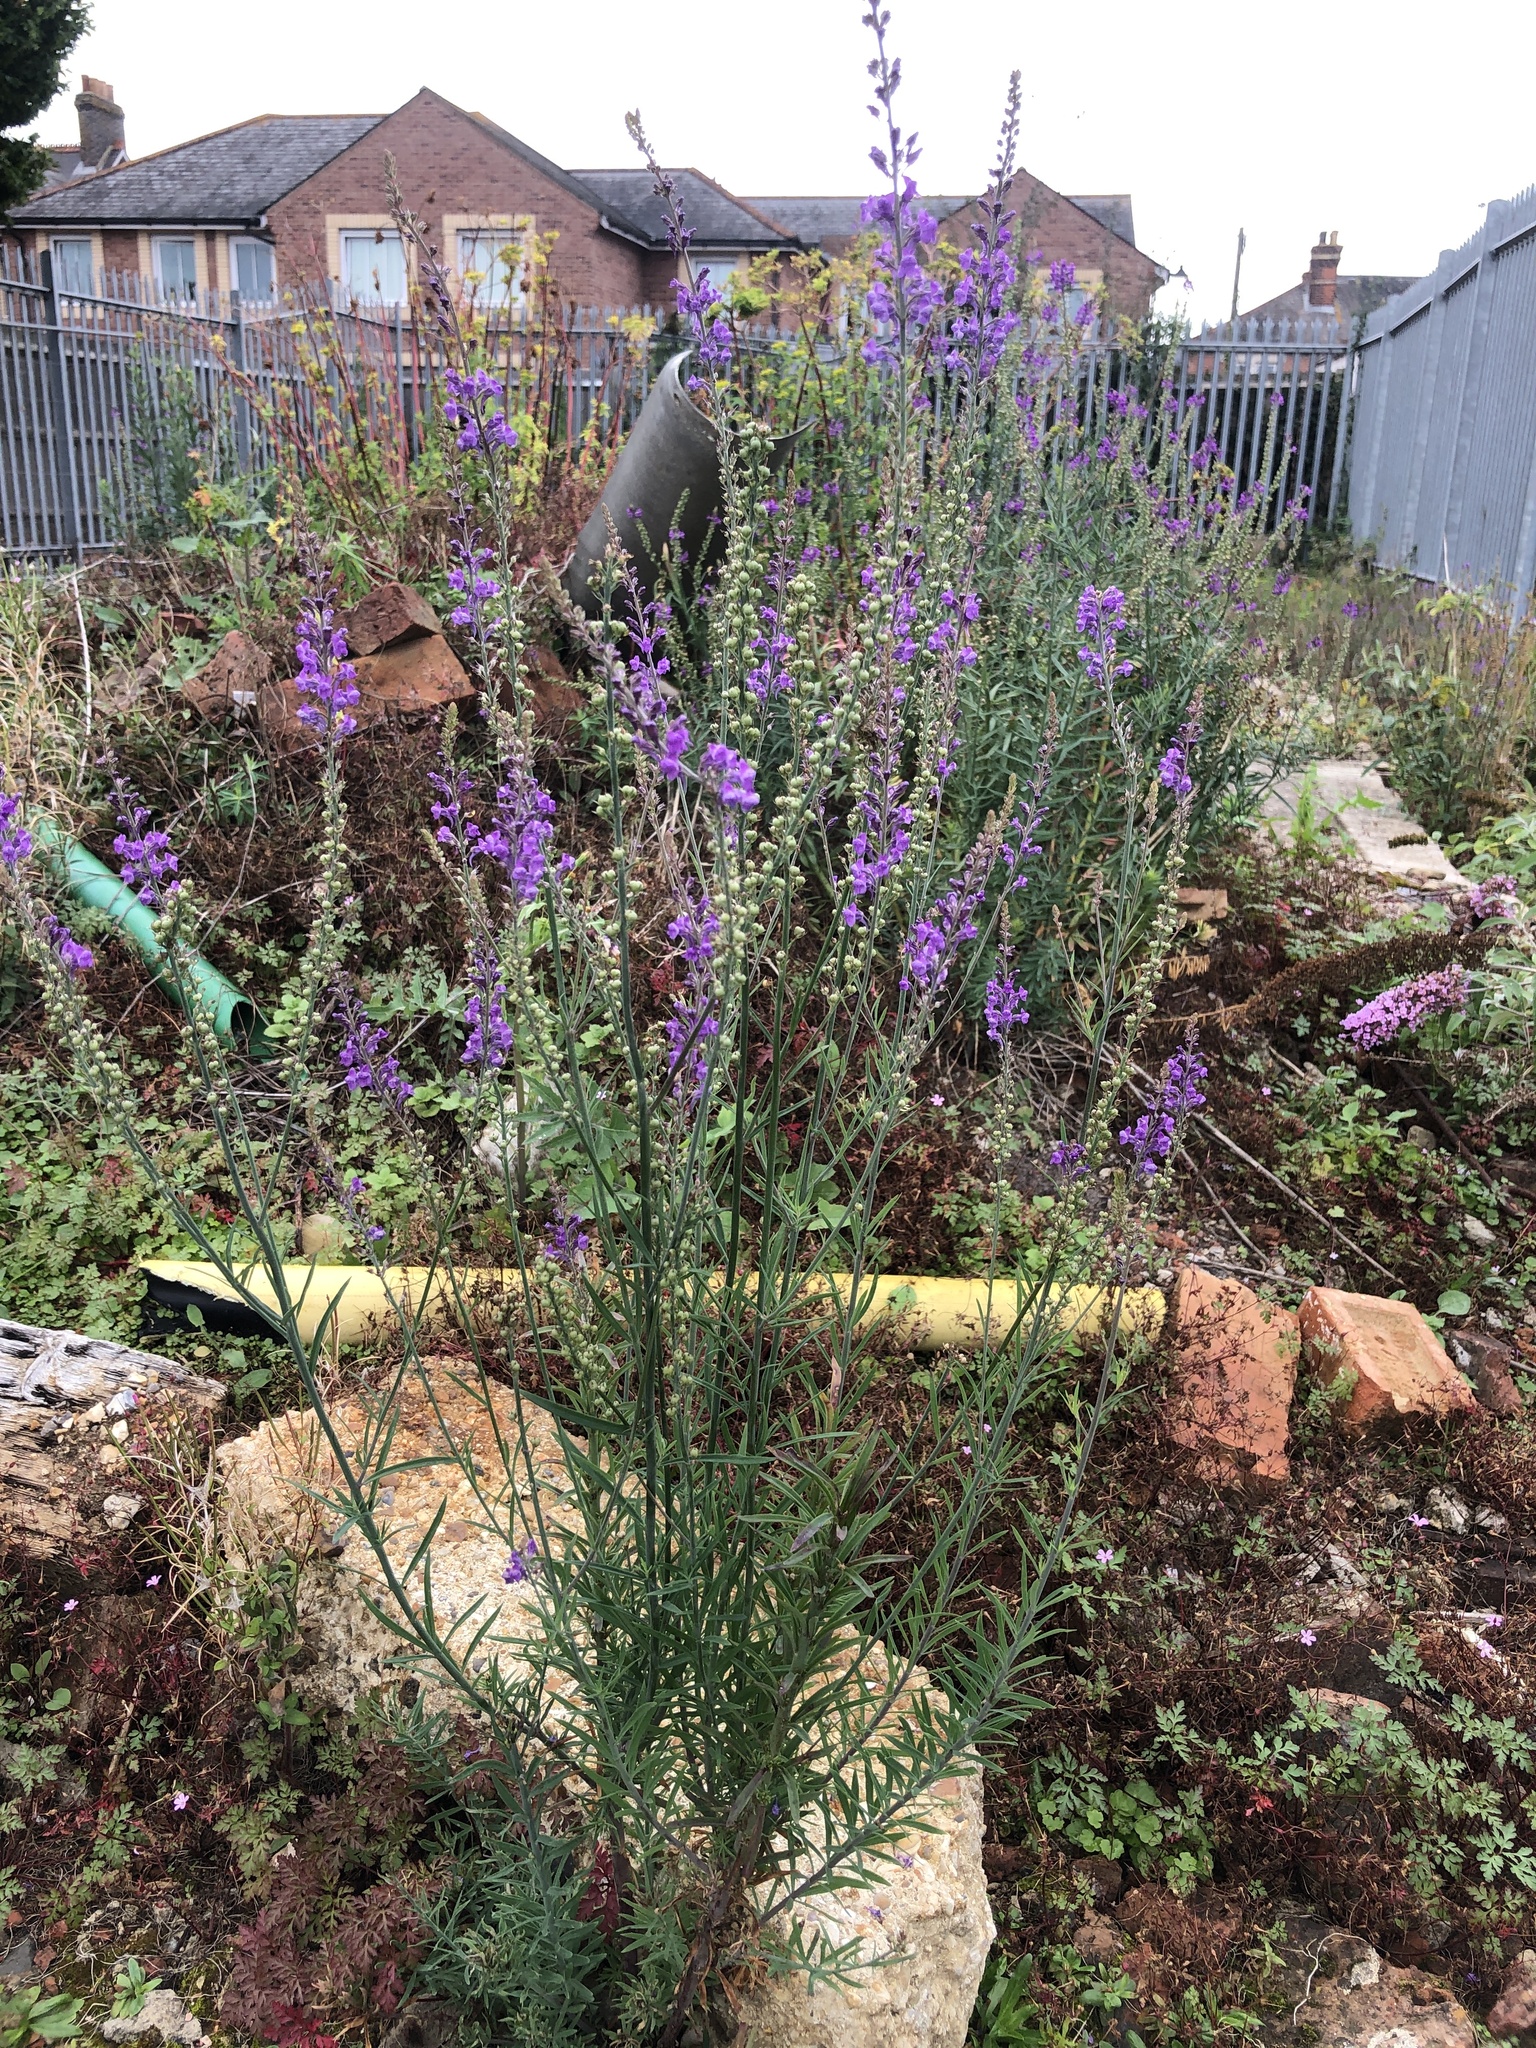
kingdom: Plantae
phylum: Tracheophyta
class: Magnoliopsida
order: Lamiales
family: Plantaginaceae
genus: Linaria
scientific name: Linaria purpurea
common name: Purple toadflax
